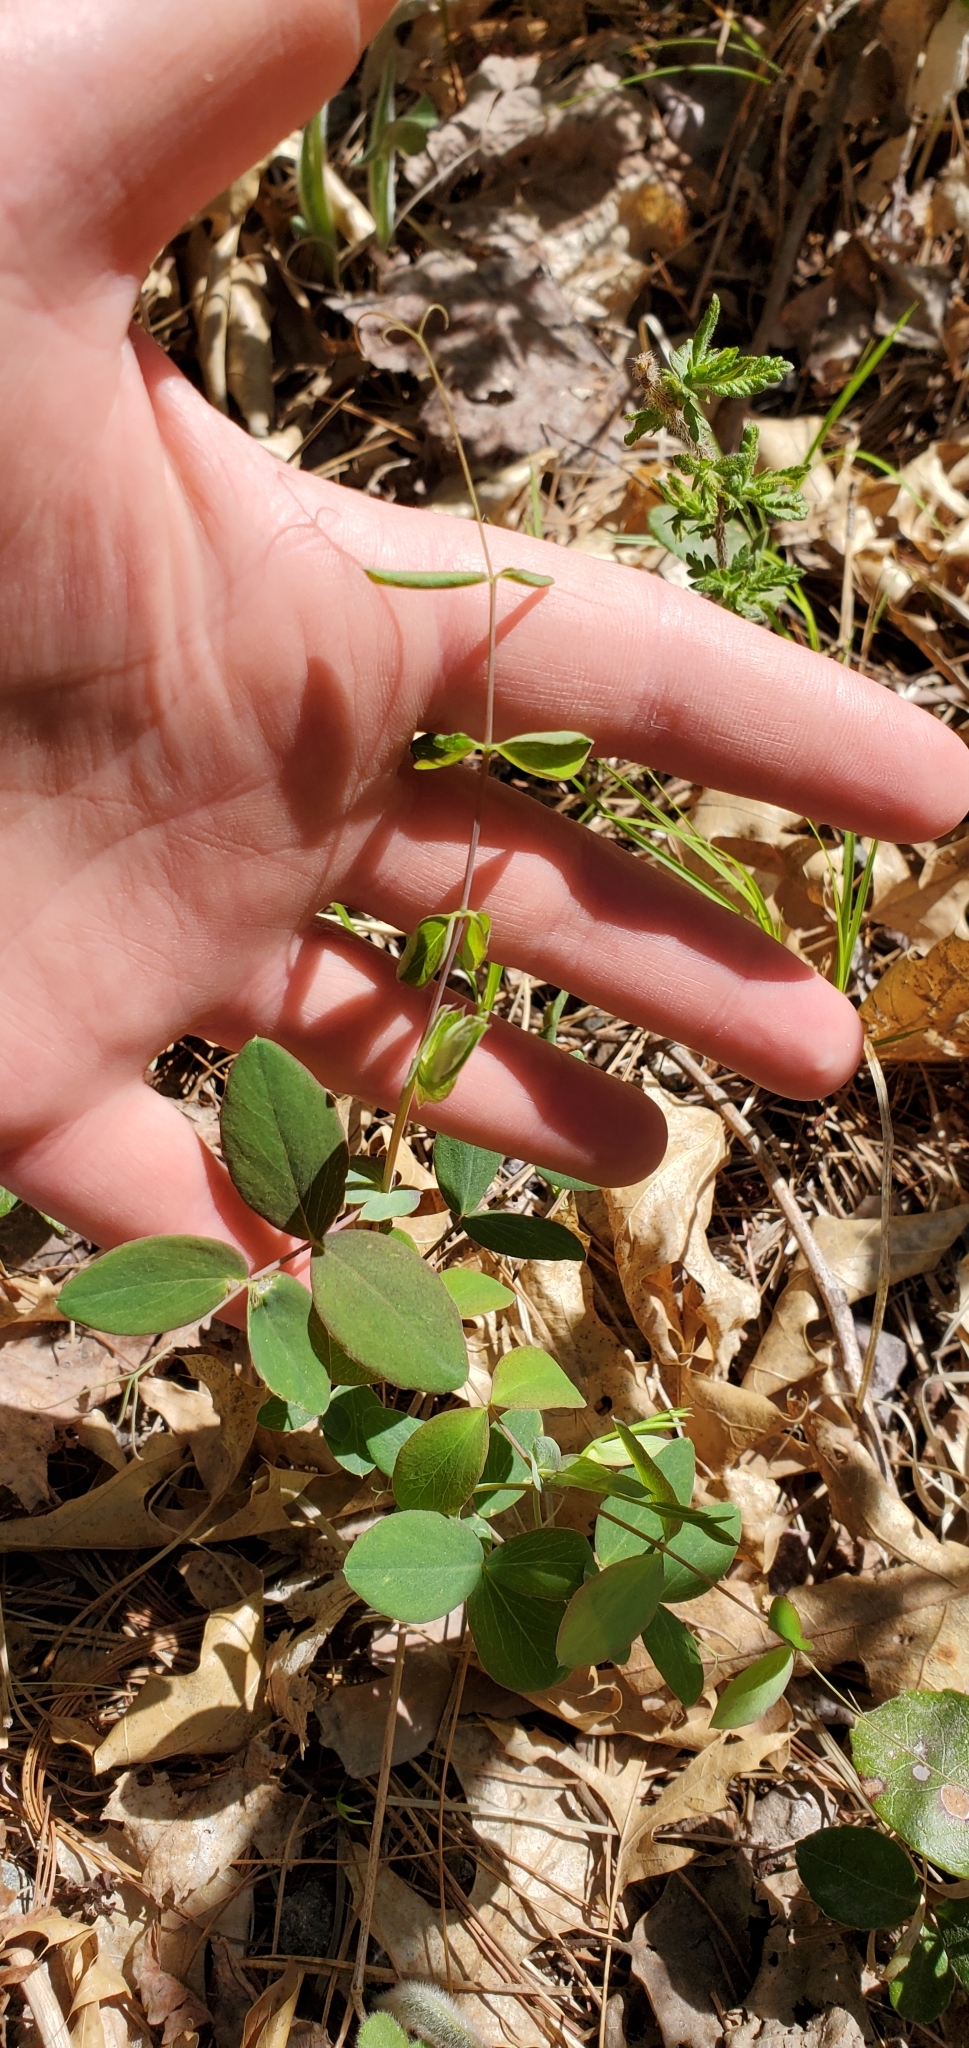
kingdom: Plantae
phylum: Tracheophyta
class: Magnoliopsida
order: Fabales
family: Fabaceae
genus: Lathyrus
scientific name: Lathyrus ochroleucus
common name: Pale vetchling
